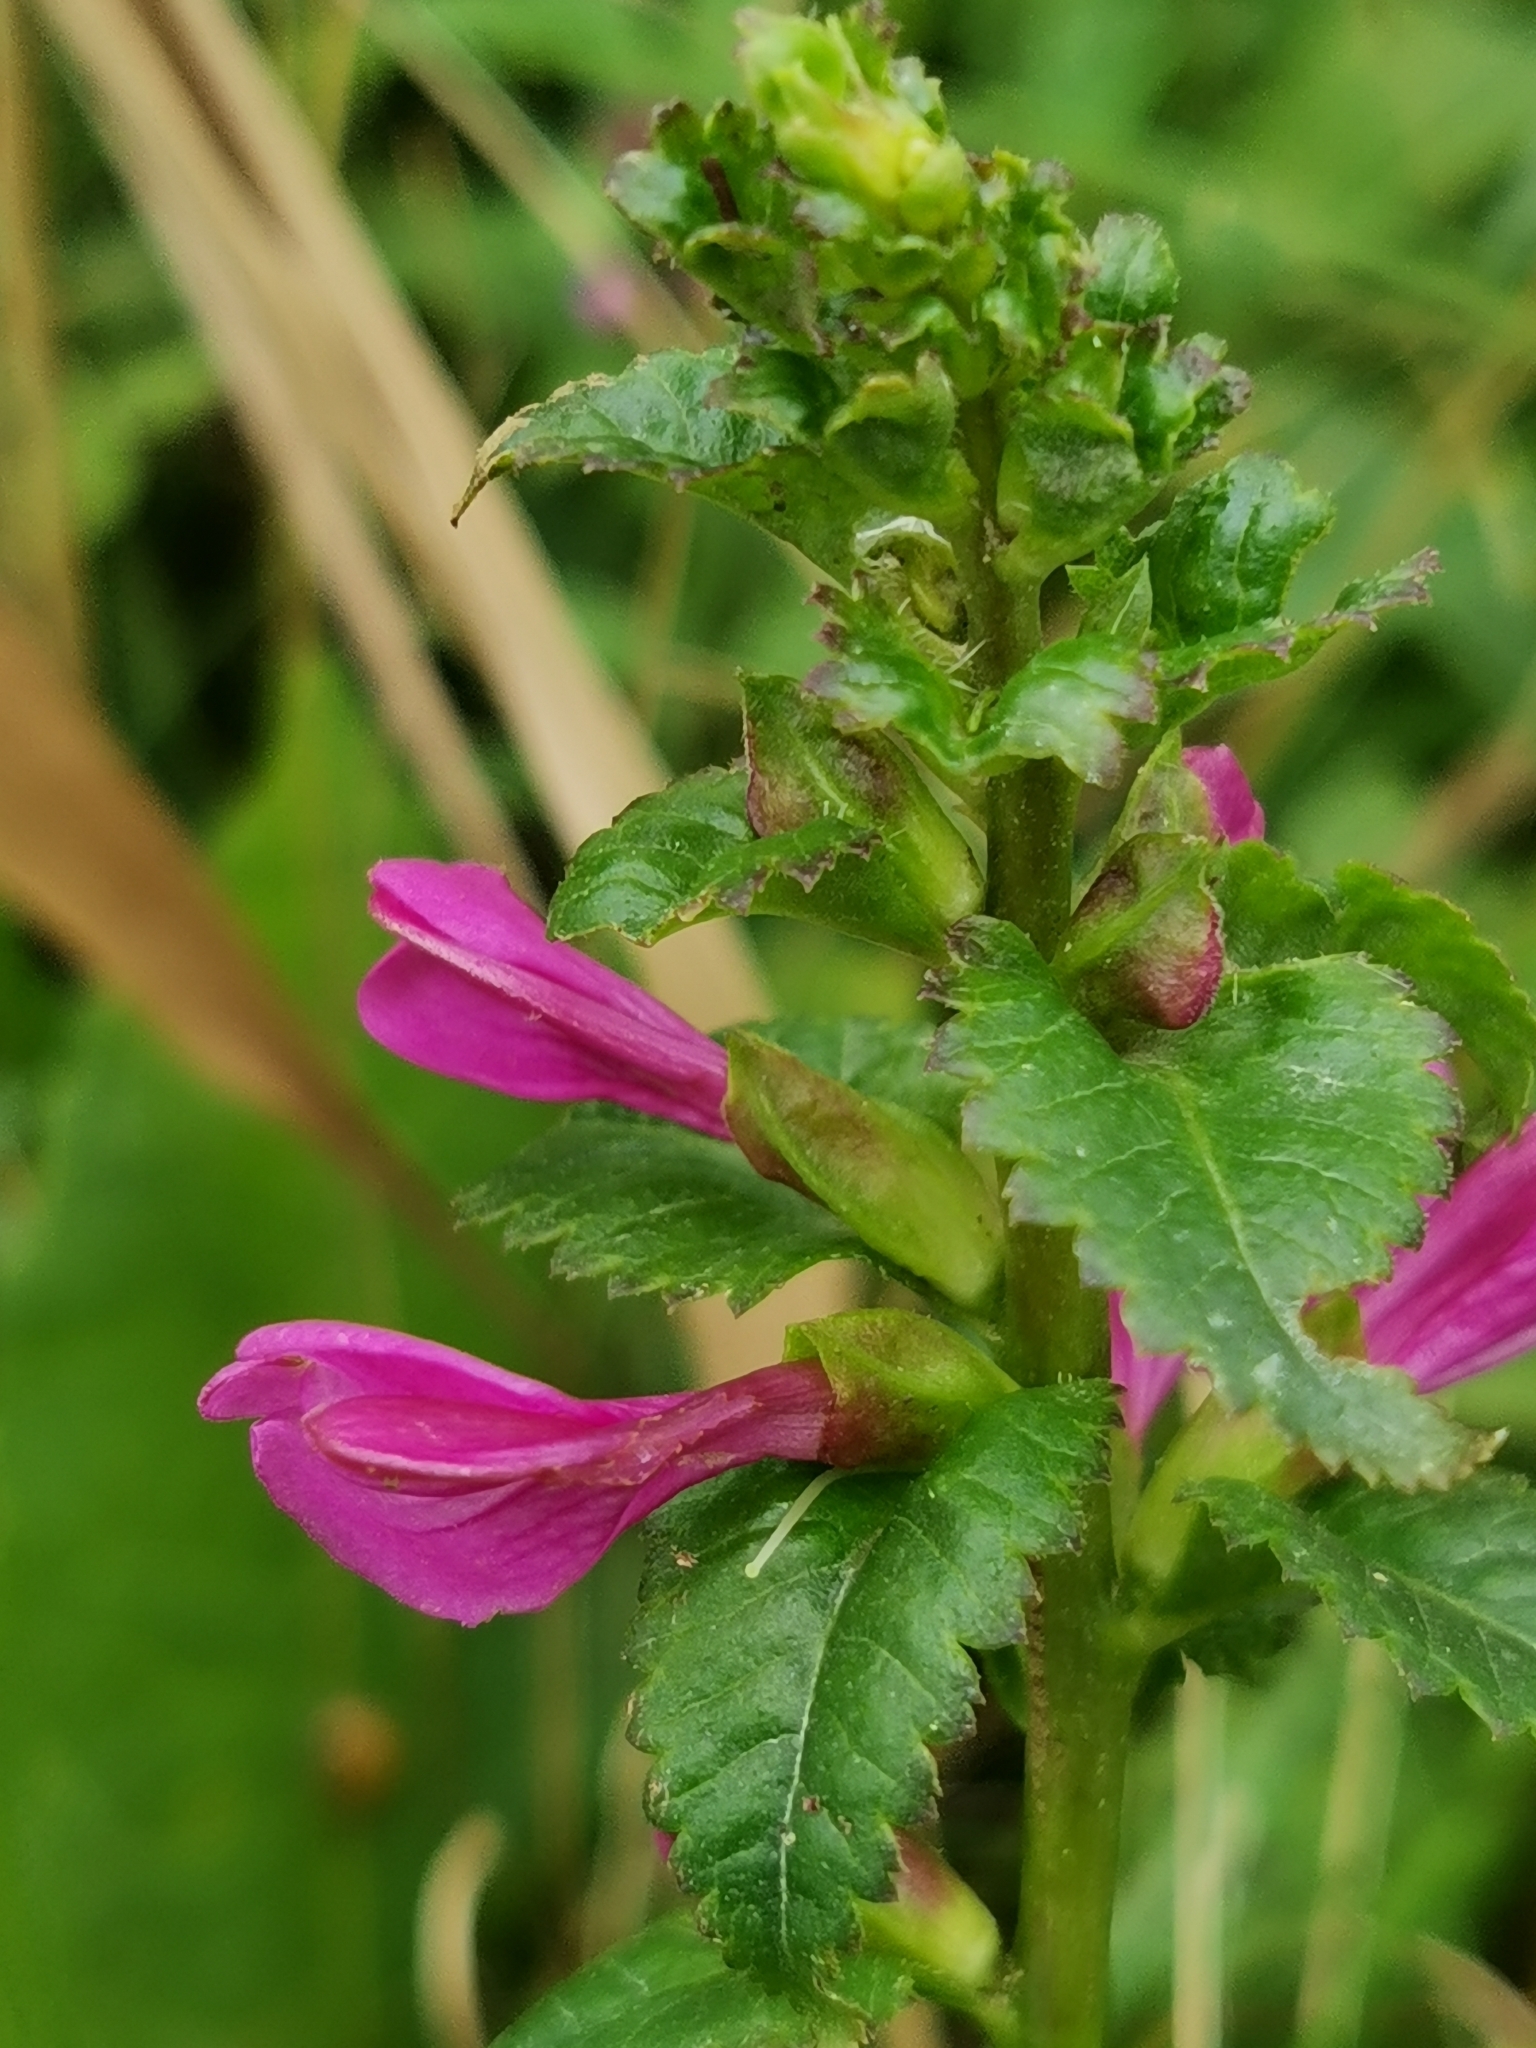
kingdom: Plantae
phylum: Tracheophyta
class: Magnoliopsida
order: Lamiales
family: Orobanchaceae
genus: Pedicularis
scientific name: Pedicularis resupinata
